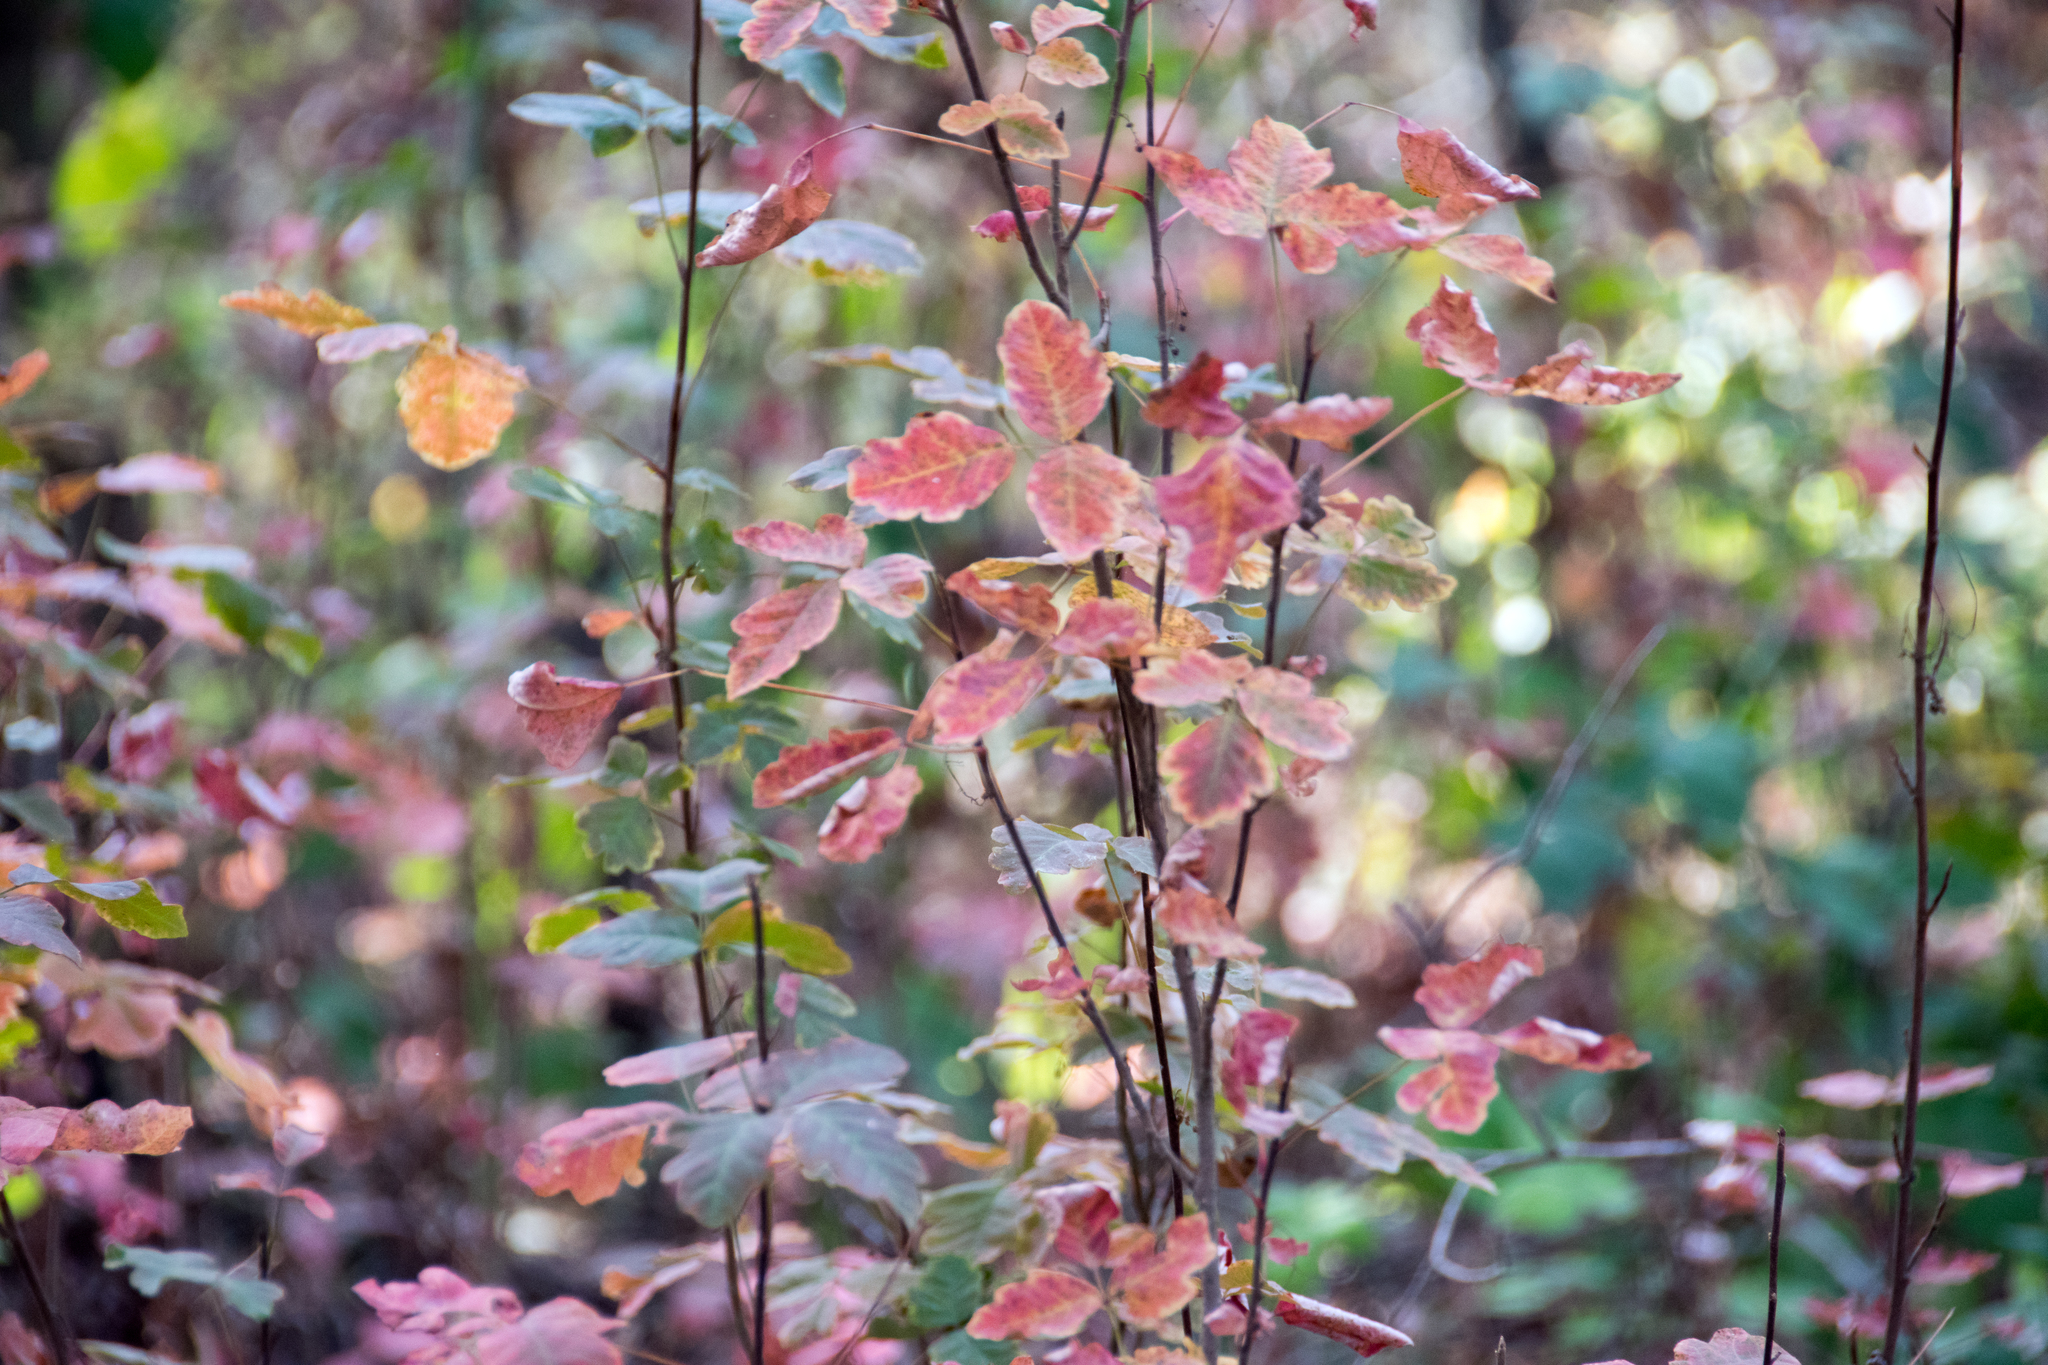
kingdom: Plantae
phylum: Tracheophyta
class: Magnoliopsida
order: Sapindales
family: Anacardiaceae
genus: Toxicodendron
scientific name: Toxicodendron diversilobum
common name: Pacific poison-oak
